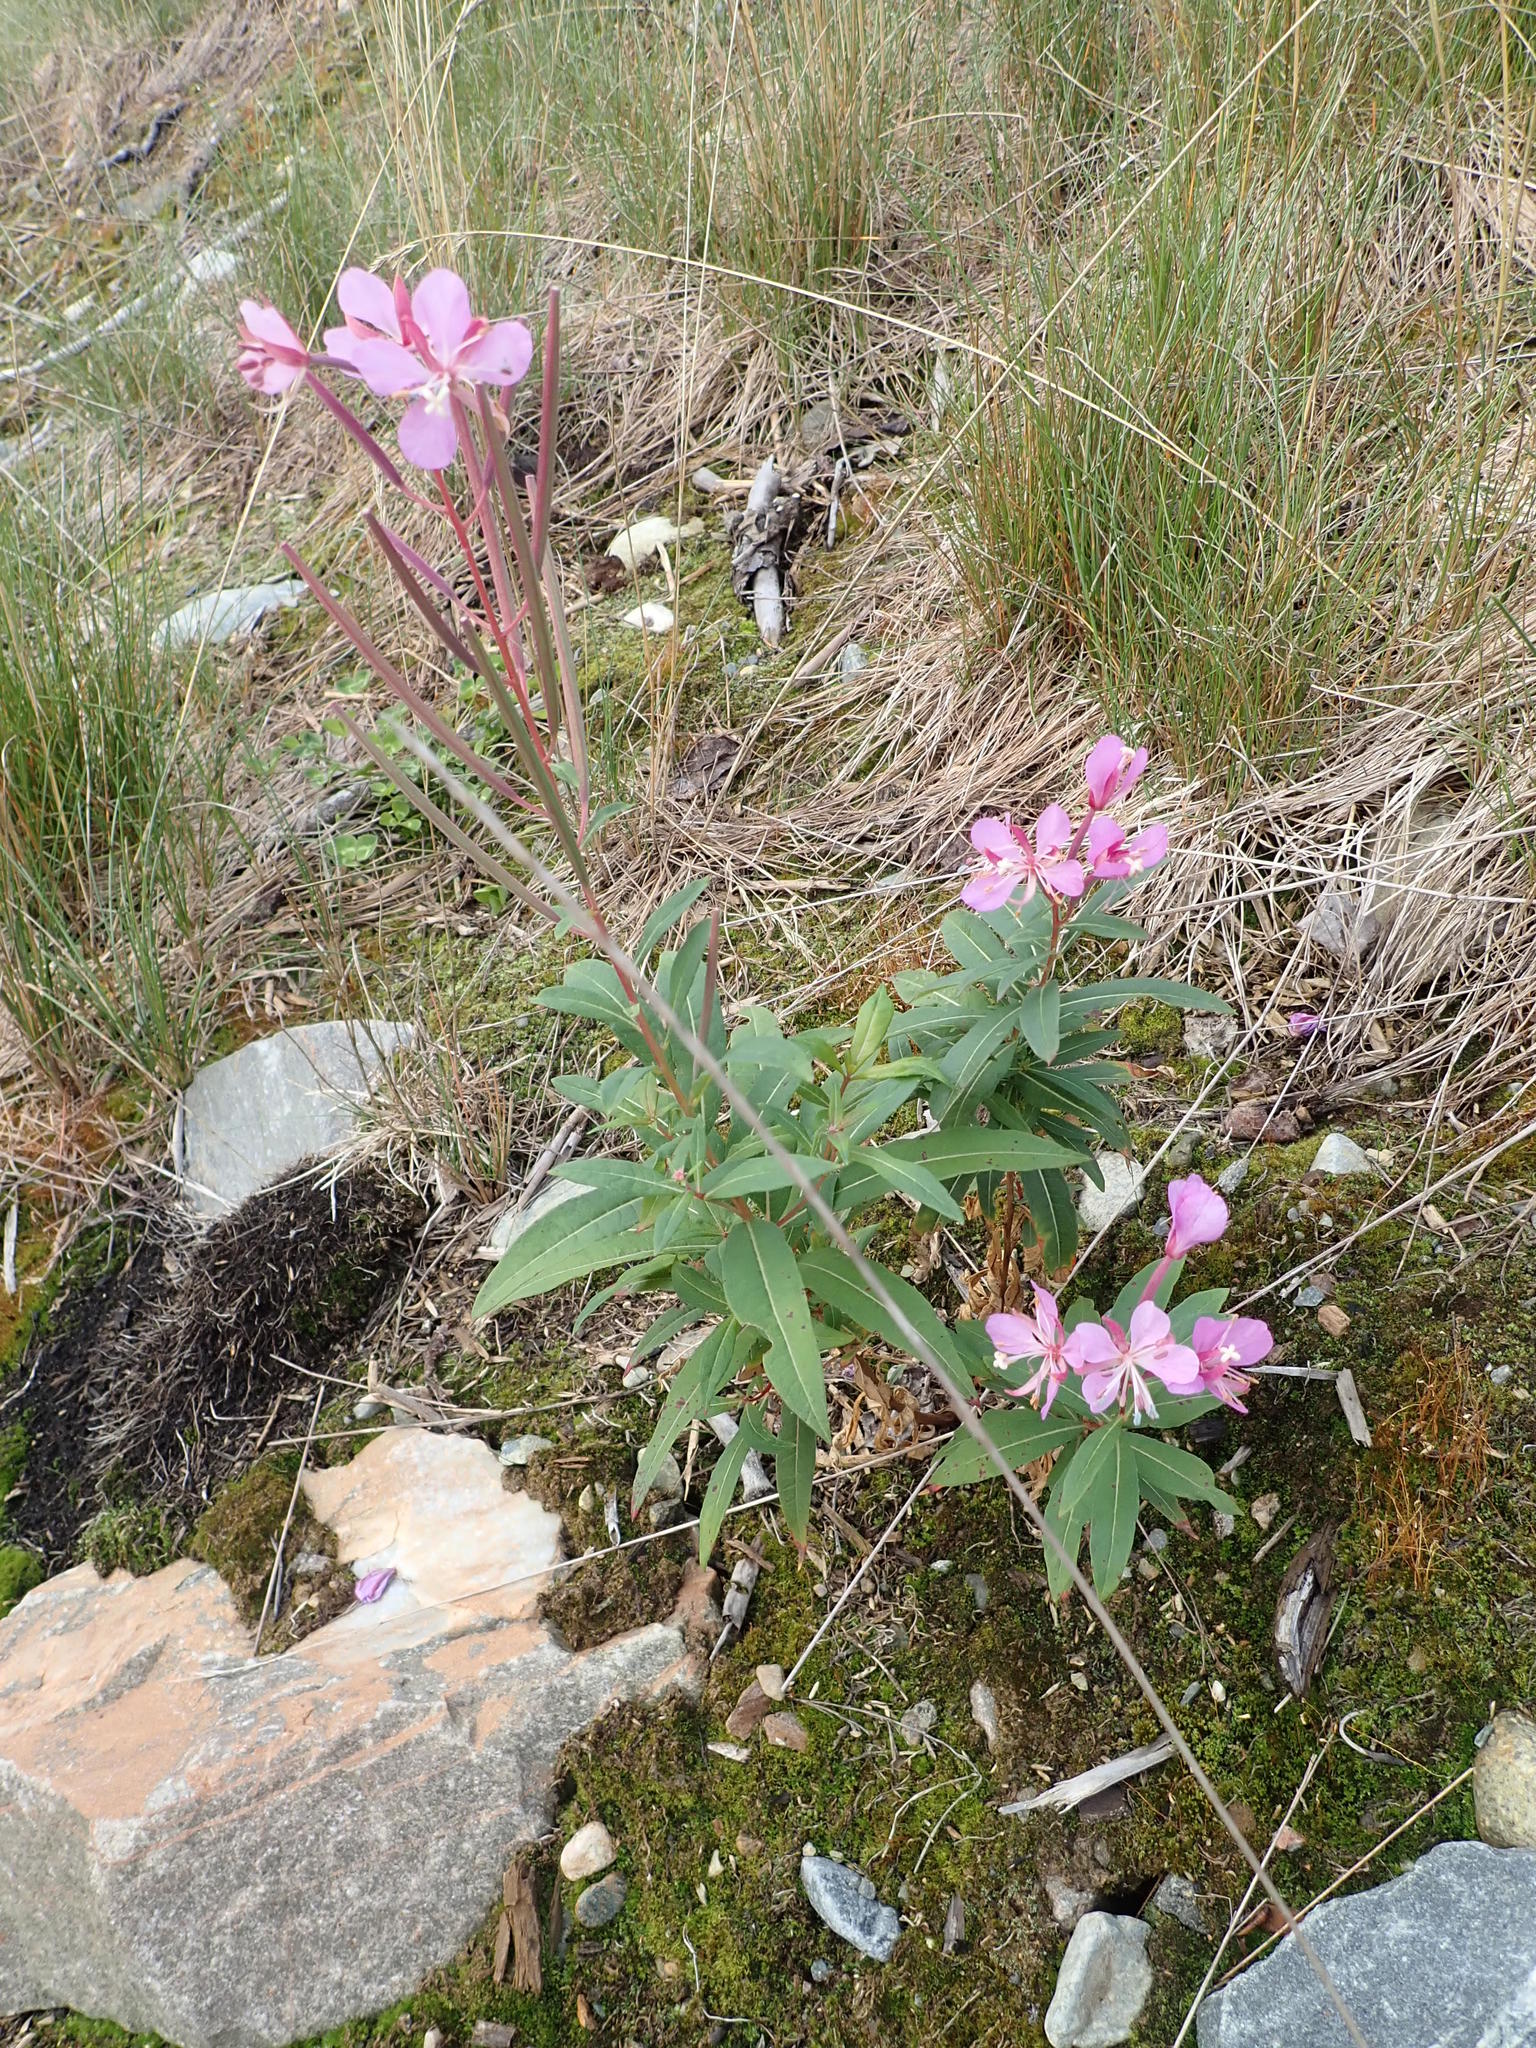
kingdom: Plantae
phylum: Tracheophyta
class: Magnoliopsida
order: Myrtales
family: Onagraceae
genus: Chamaenerion
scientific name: Chamaenerion angustifolium
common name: Fireweed
